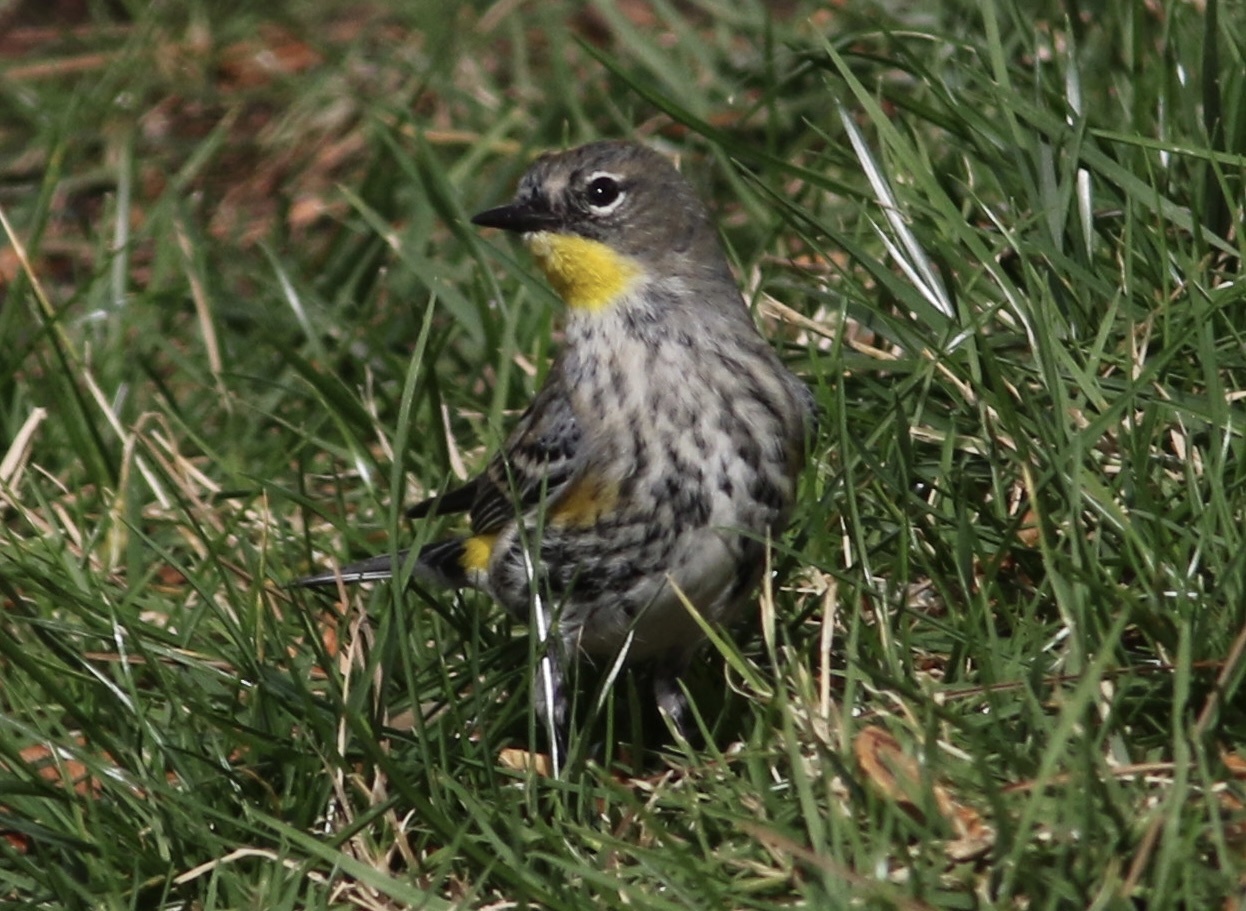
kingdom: Animalia
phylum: Chordata
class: Aves
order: Passeriformes
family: Parulidae
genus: Setophaga
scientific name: Setophaga auduboni
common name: Audubon's warbler
